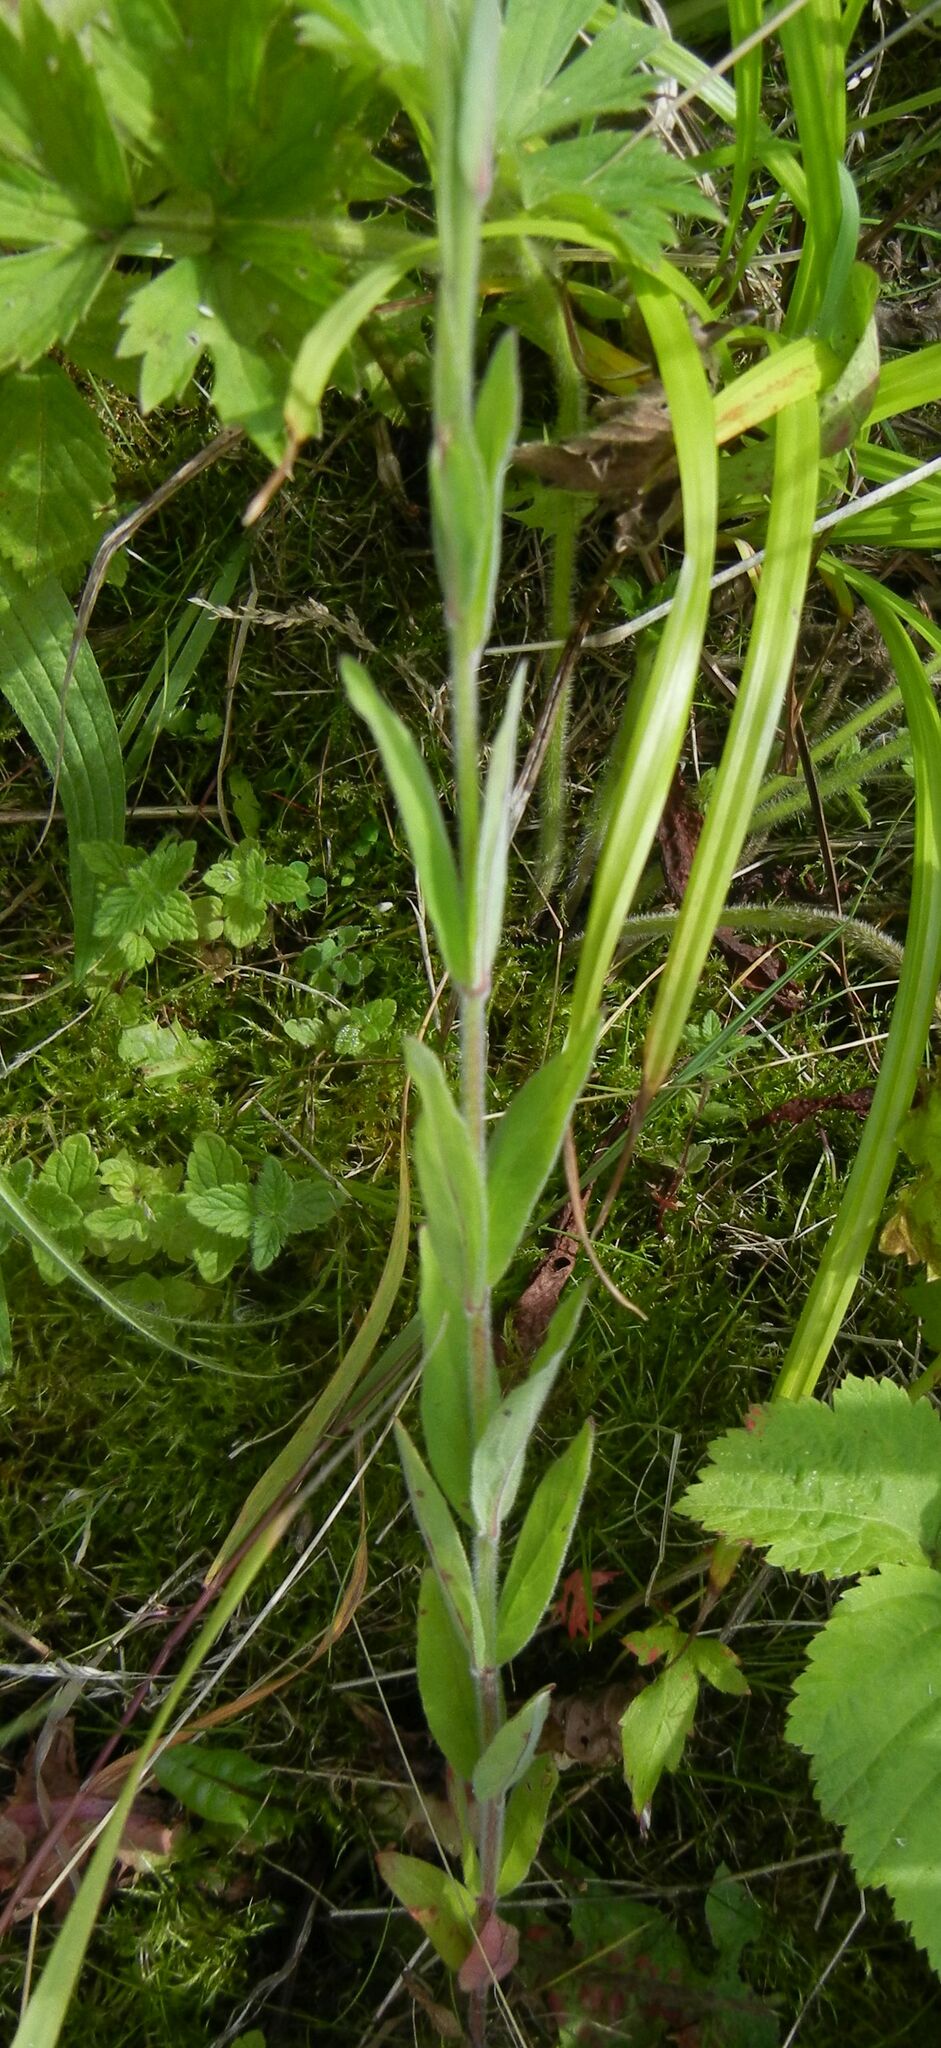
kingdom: Plantae
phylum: Tracheophyta
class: Magnoliopsida
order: Myrtales
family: Onagraceae
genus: Epilobium
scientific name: Epilobium parviflorum
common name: Hoary willowherb
